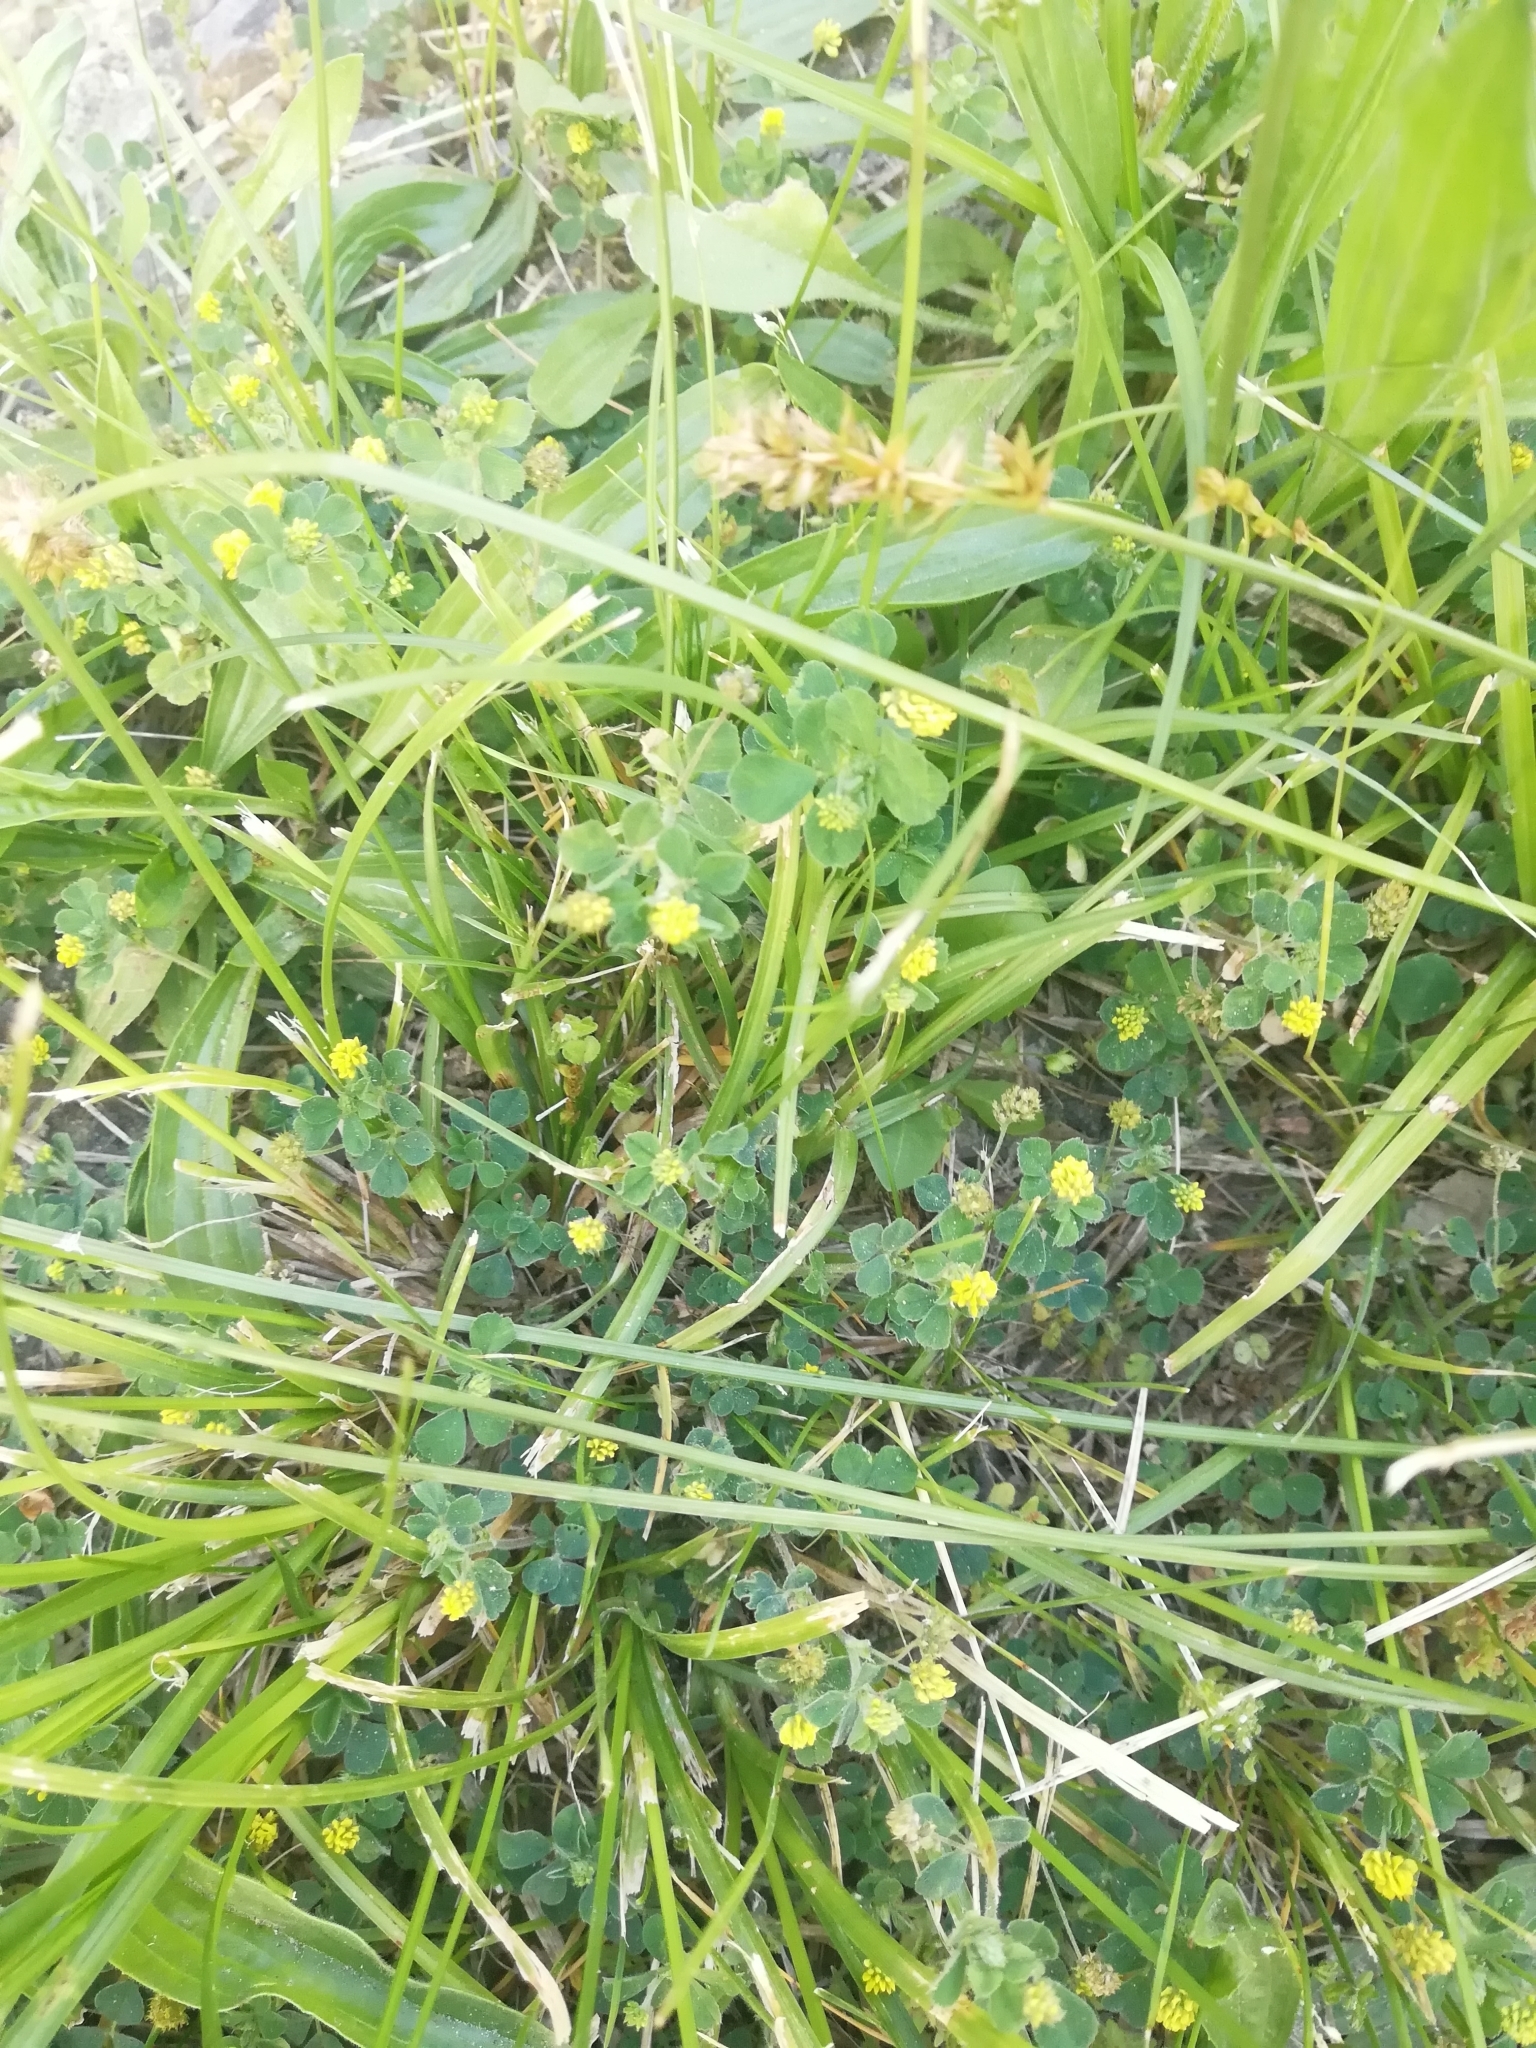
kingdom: Plantae
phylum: Tracheophyta
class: Magnoliopsida
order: Fabales
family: Fabaceae
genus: Medicago
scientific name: Medicago lupulina
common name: Black medick
